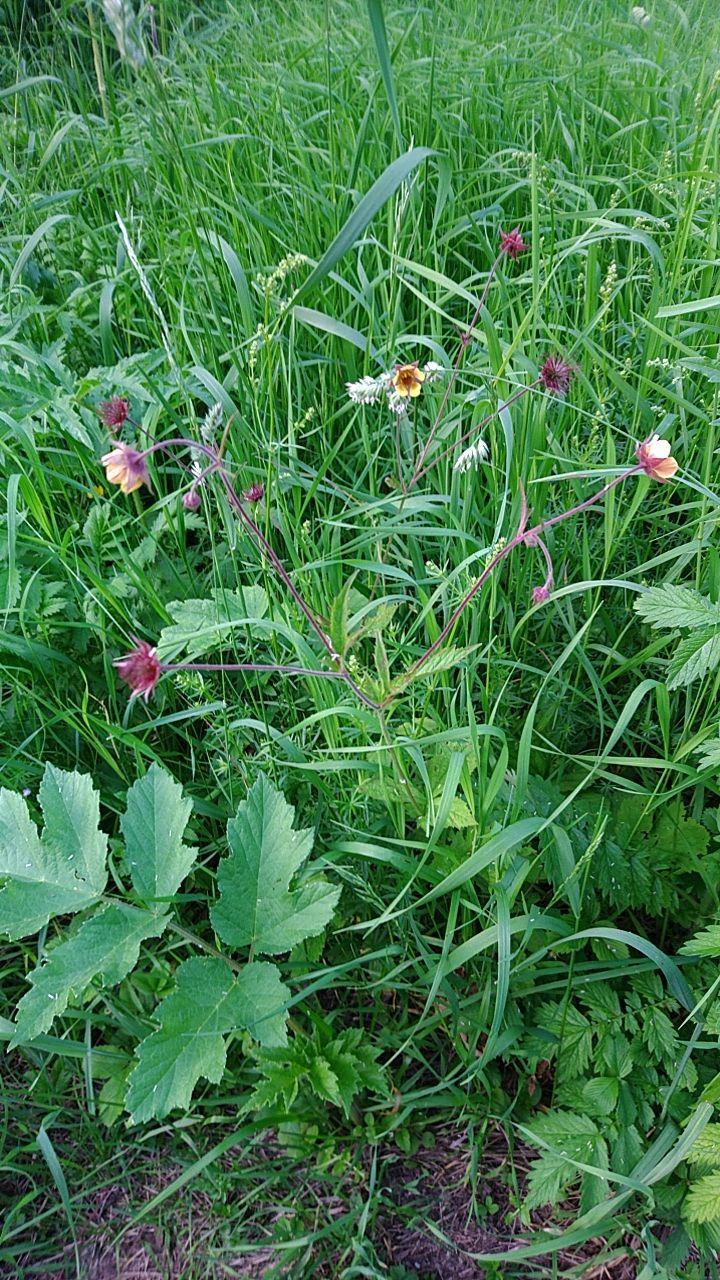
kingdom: Plantae
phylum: Tracheophyta
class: Magnoliopsida
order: Rosales
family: Rosaceae
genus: Geum
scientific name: Geum rivale
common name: Water avens
